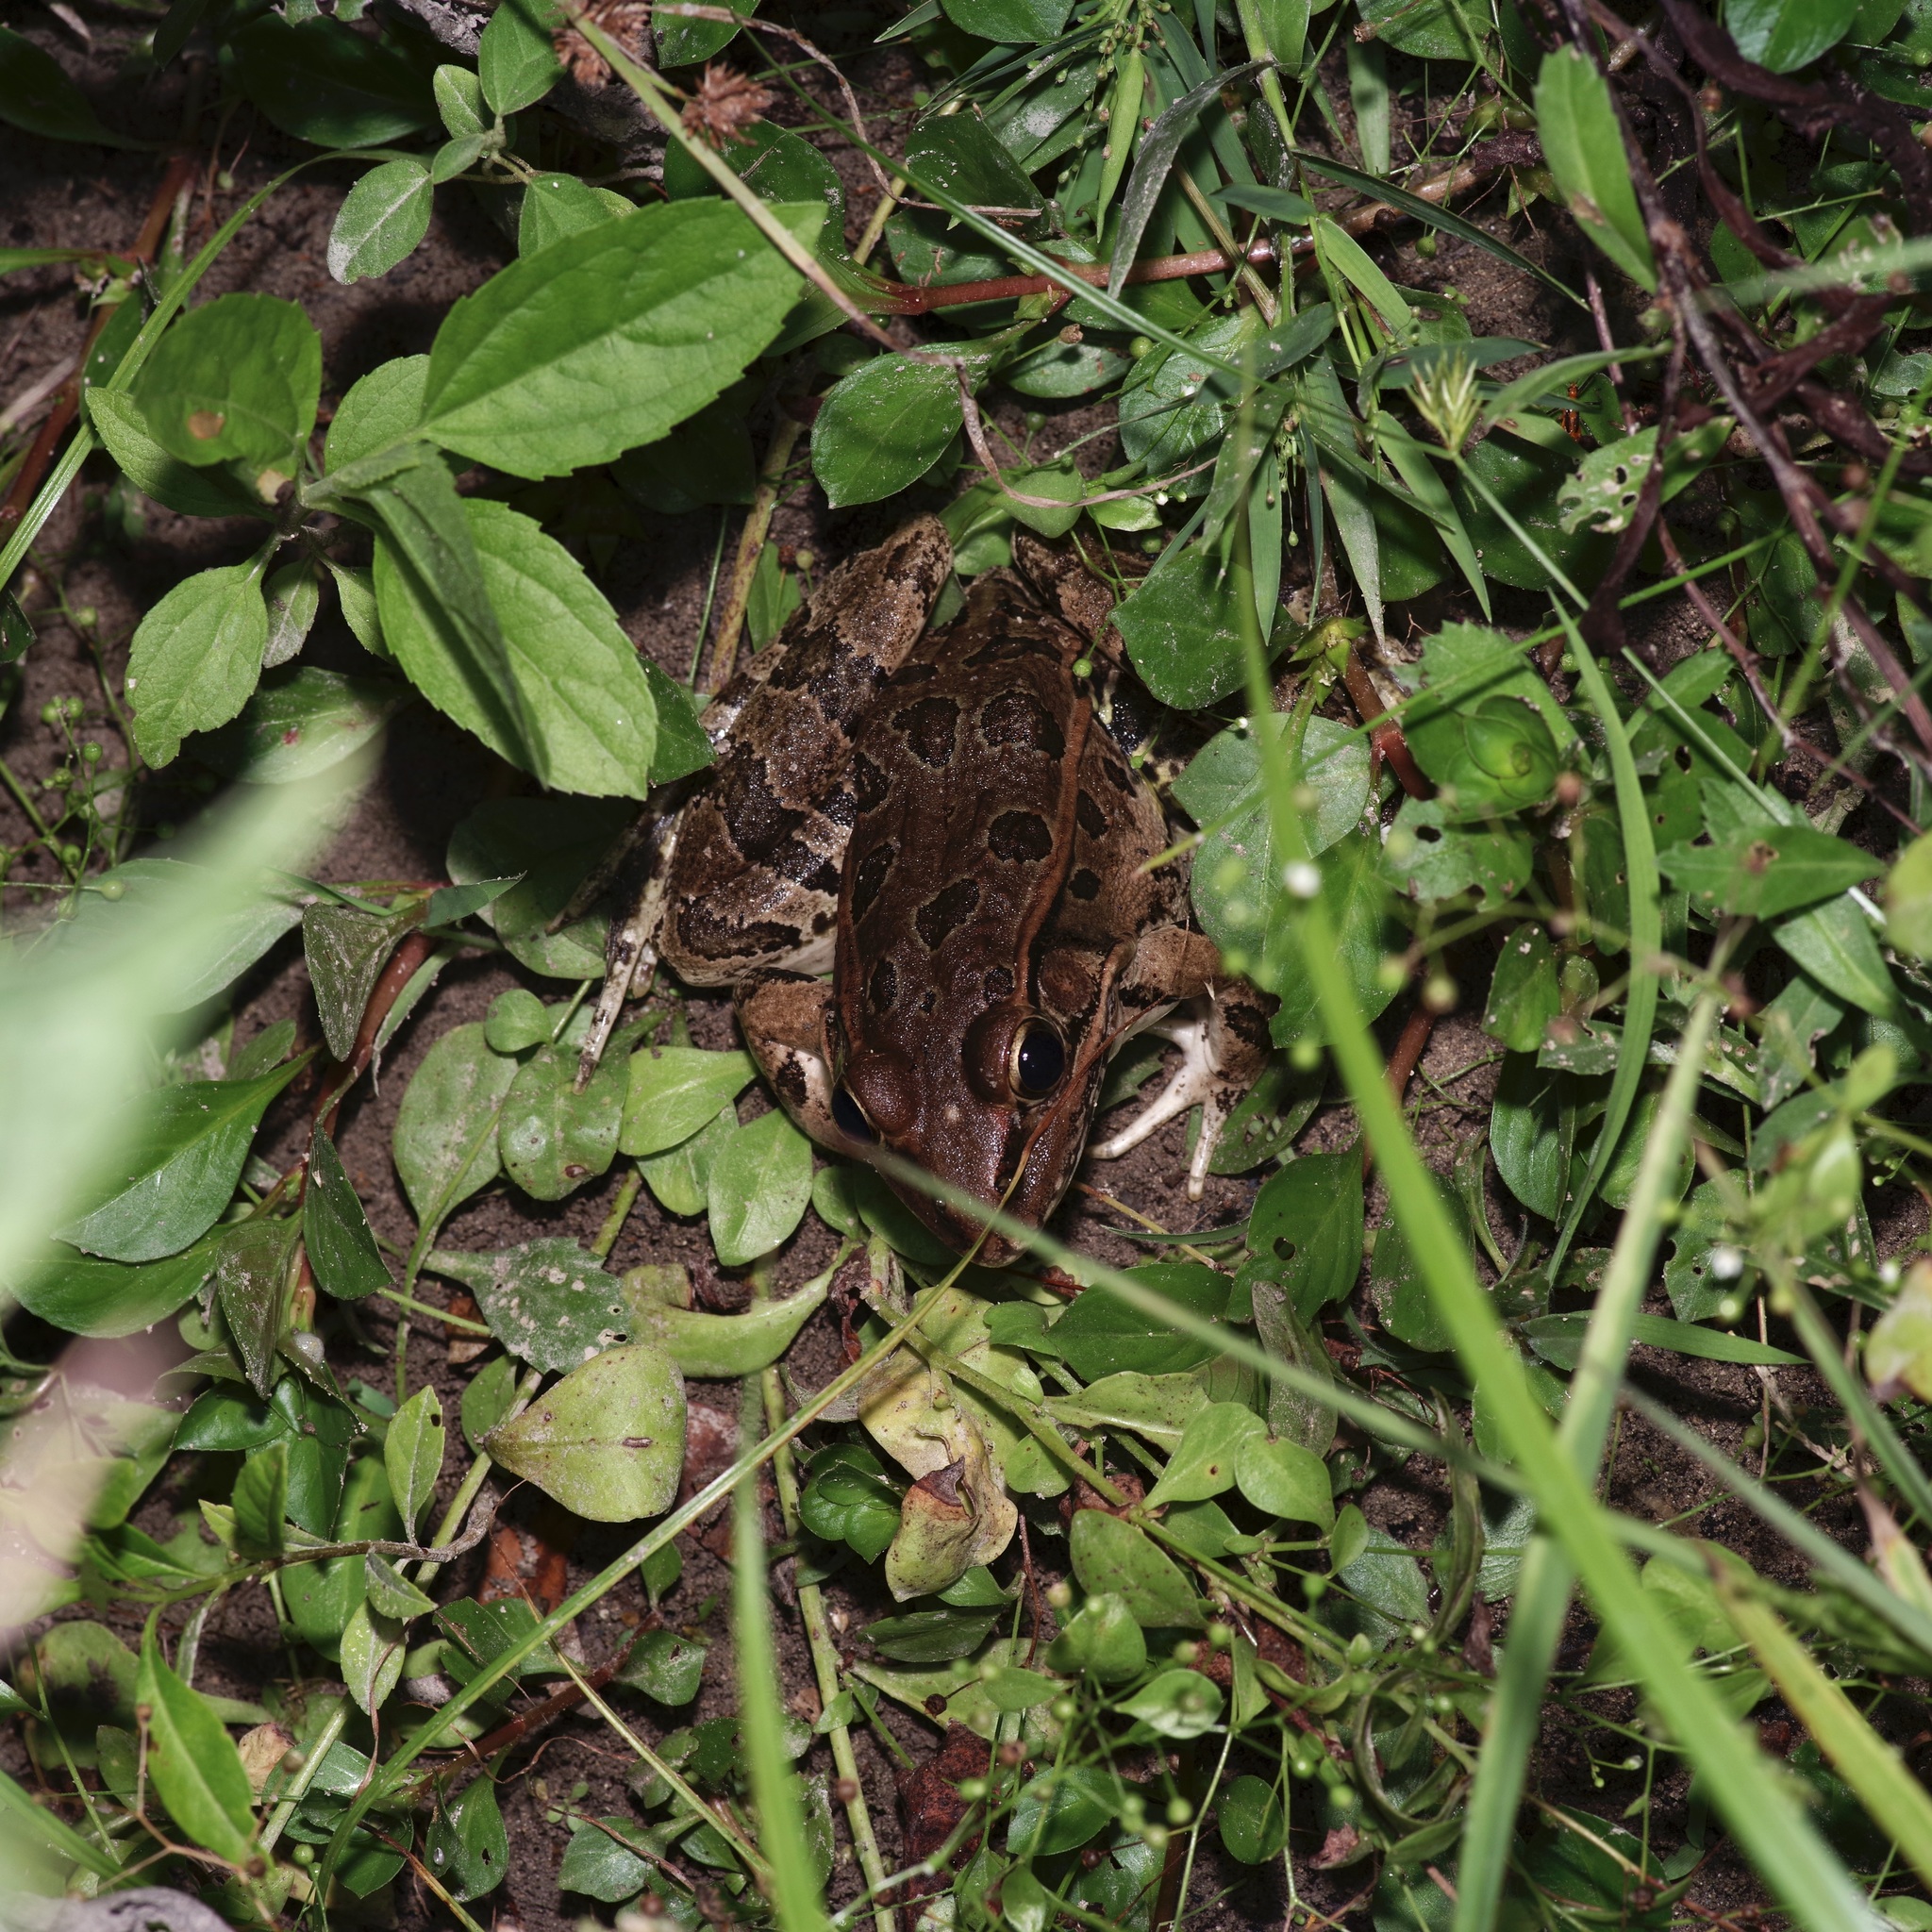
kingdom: Animalia
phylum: Chordata
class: Amphibia
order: Anura
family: Ranidae
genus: Lithobates
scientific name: Lithobates berlandieri
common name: Rio grande leopard frog
